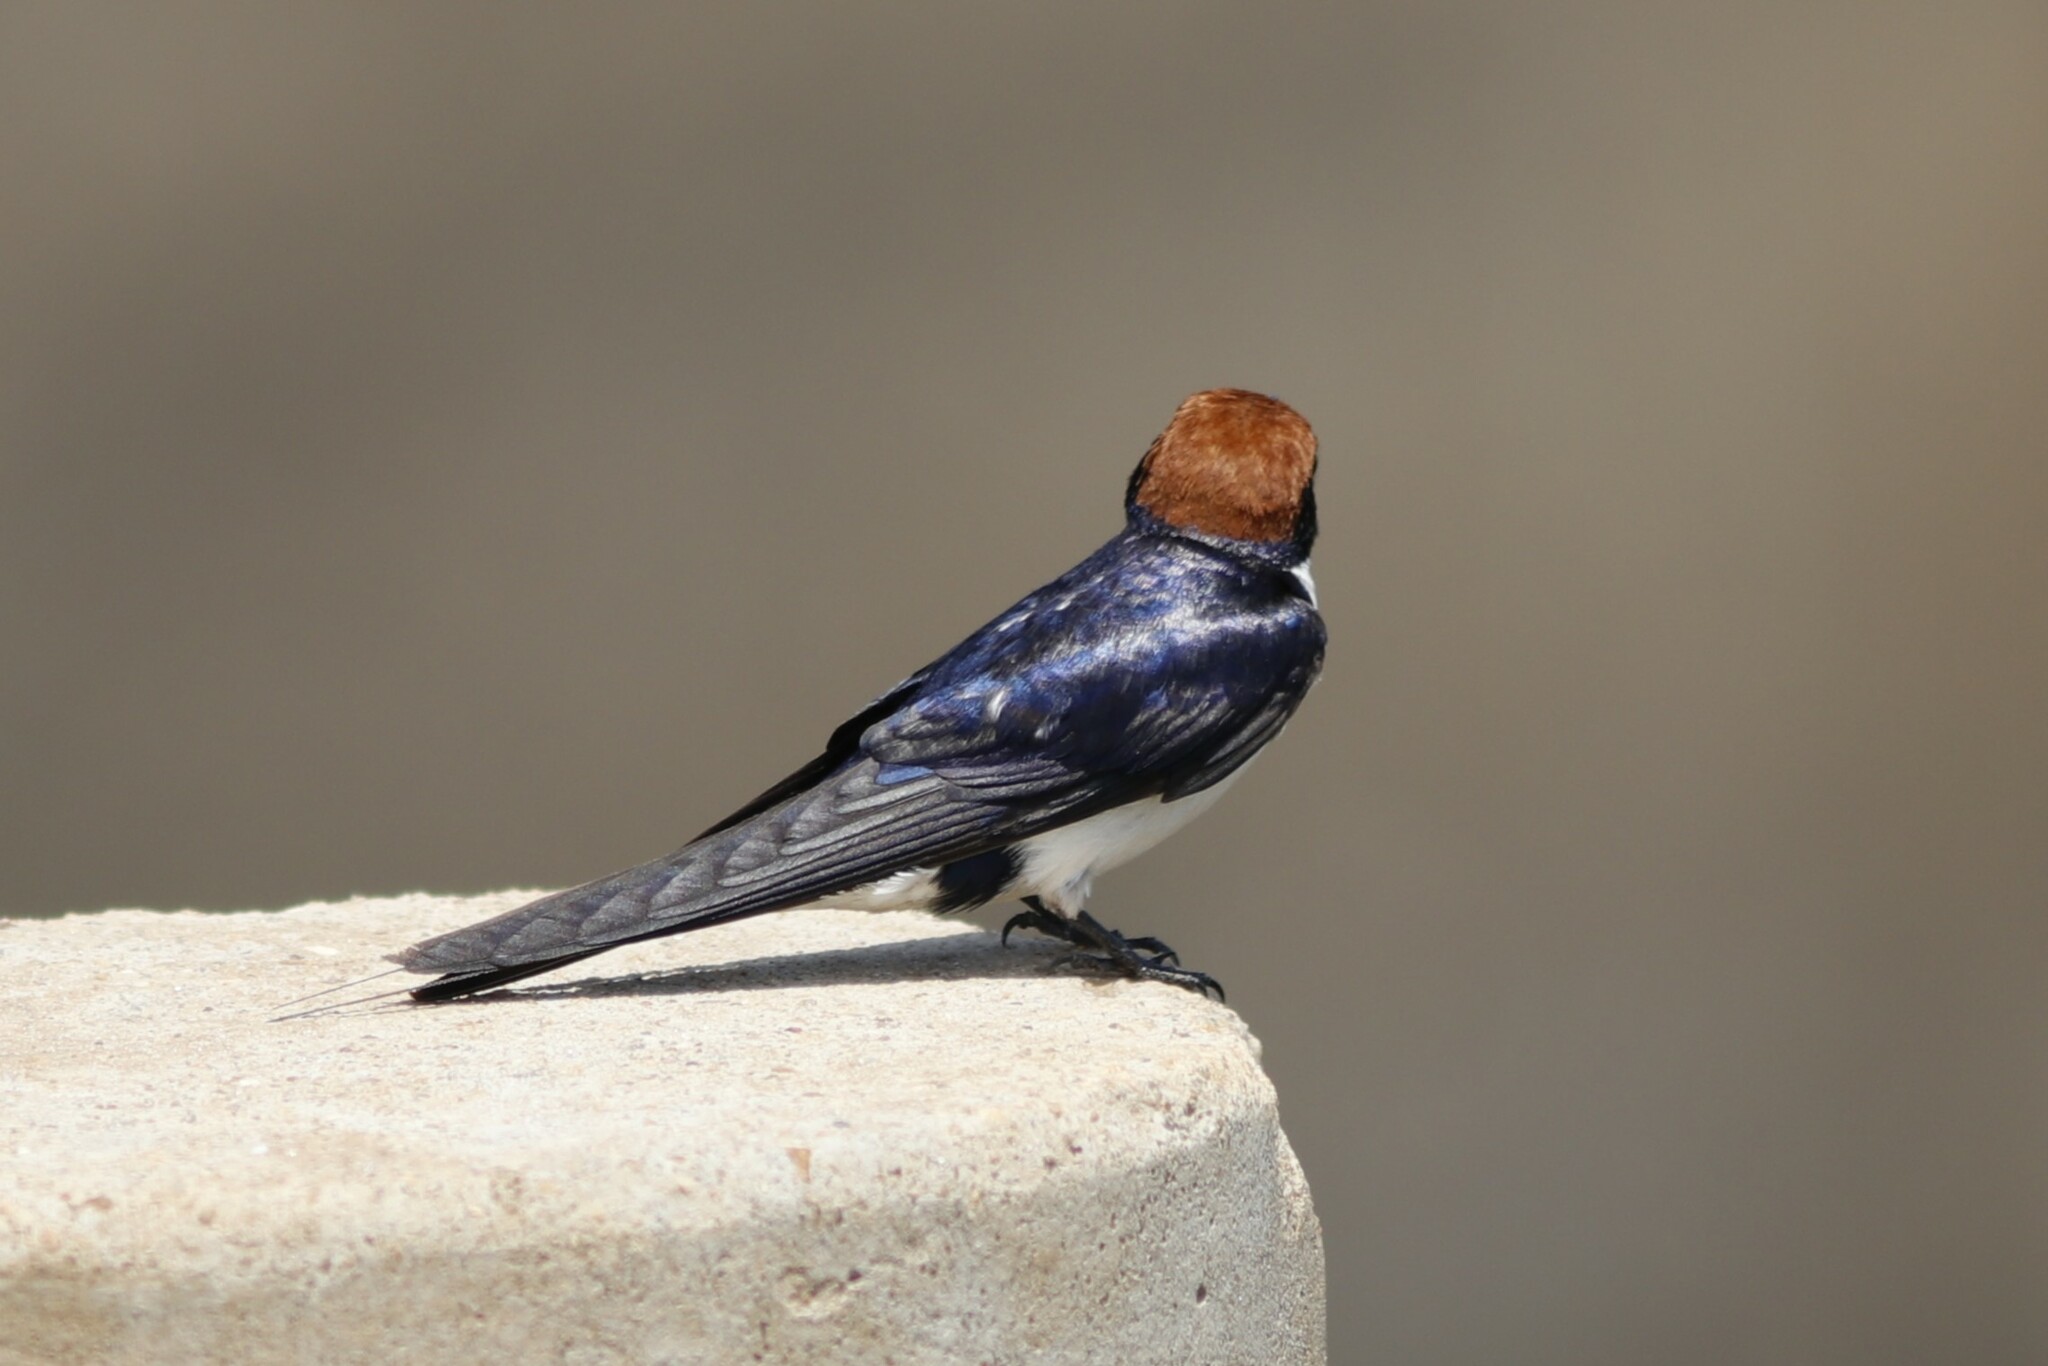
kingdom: Animalia
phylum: Chordata
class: Aves
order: Passeriformes
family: Hirundinidae
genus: Hirundo
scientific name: Hirundo smithii
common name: Wire-tailed swallow
